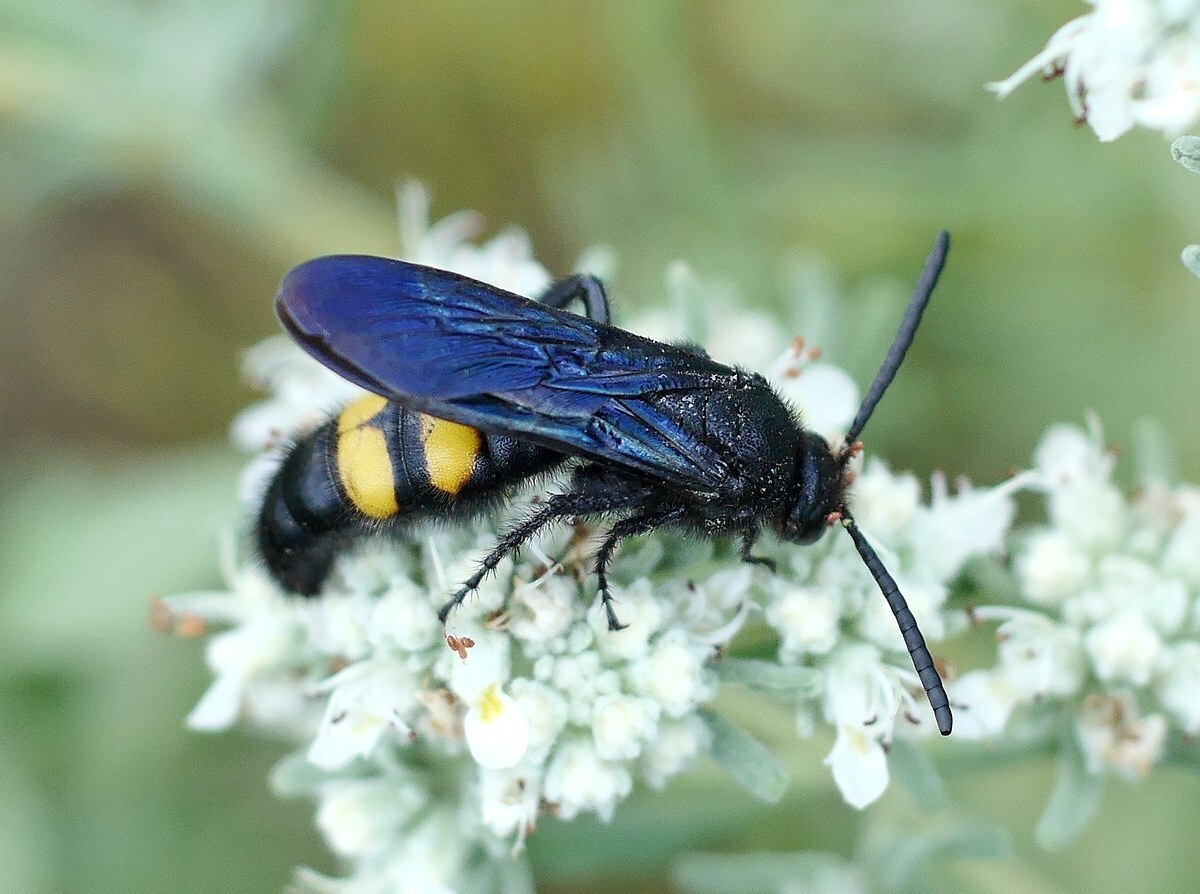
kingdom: Animalia
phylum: Arthropoda
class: Insecta
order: Hymenoptera
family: Scoliidae
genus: Scolia
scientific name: Scolia hirta
